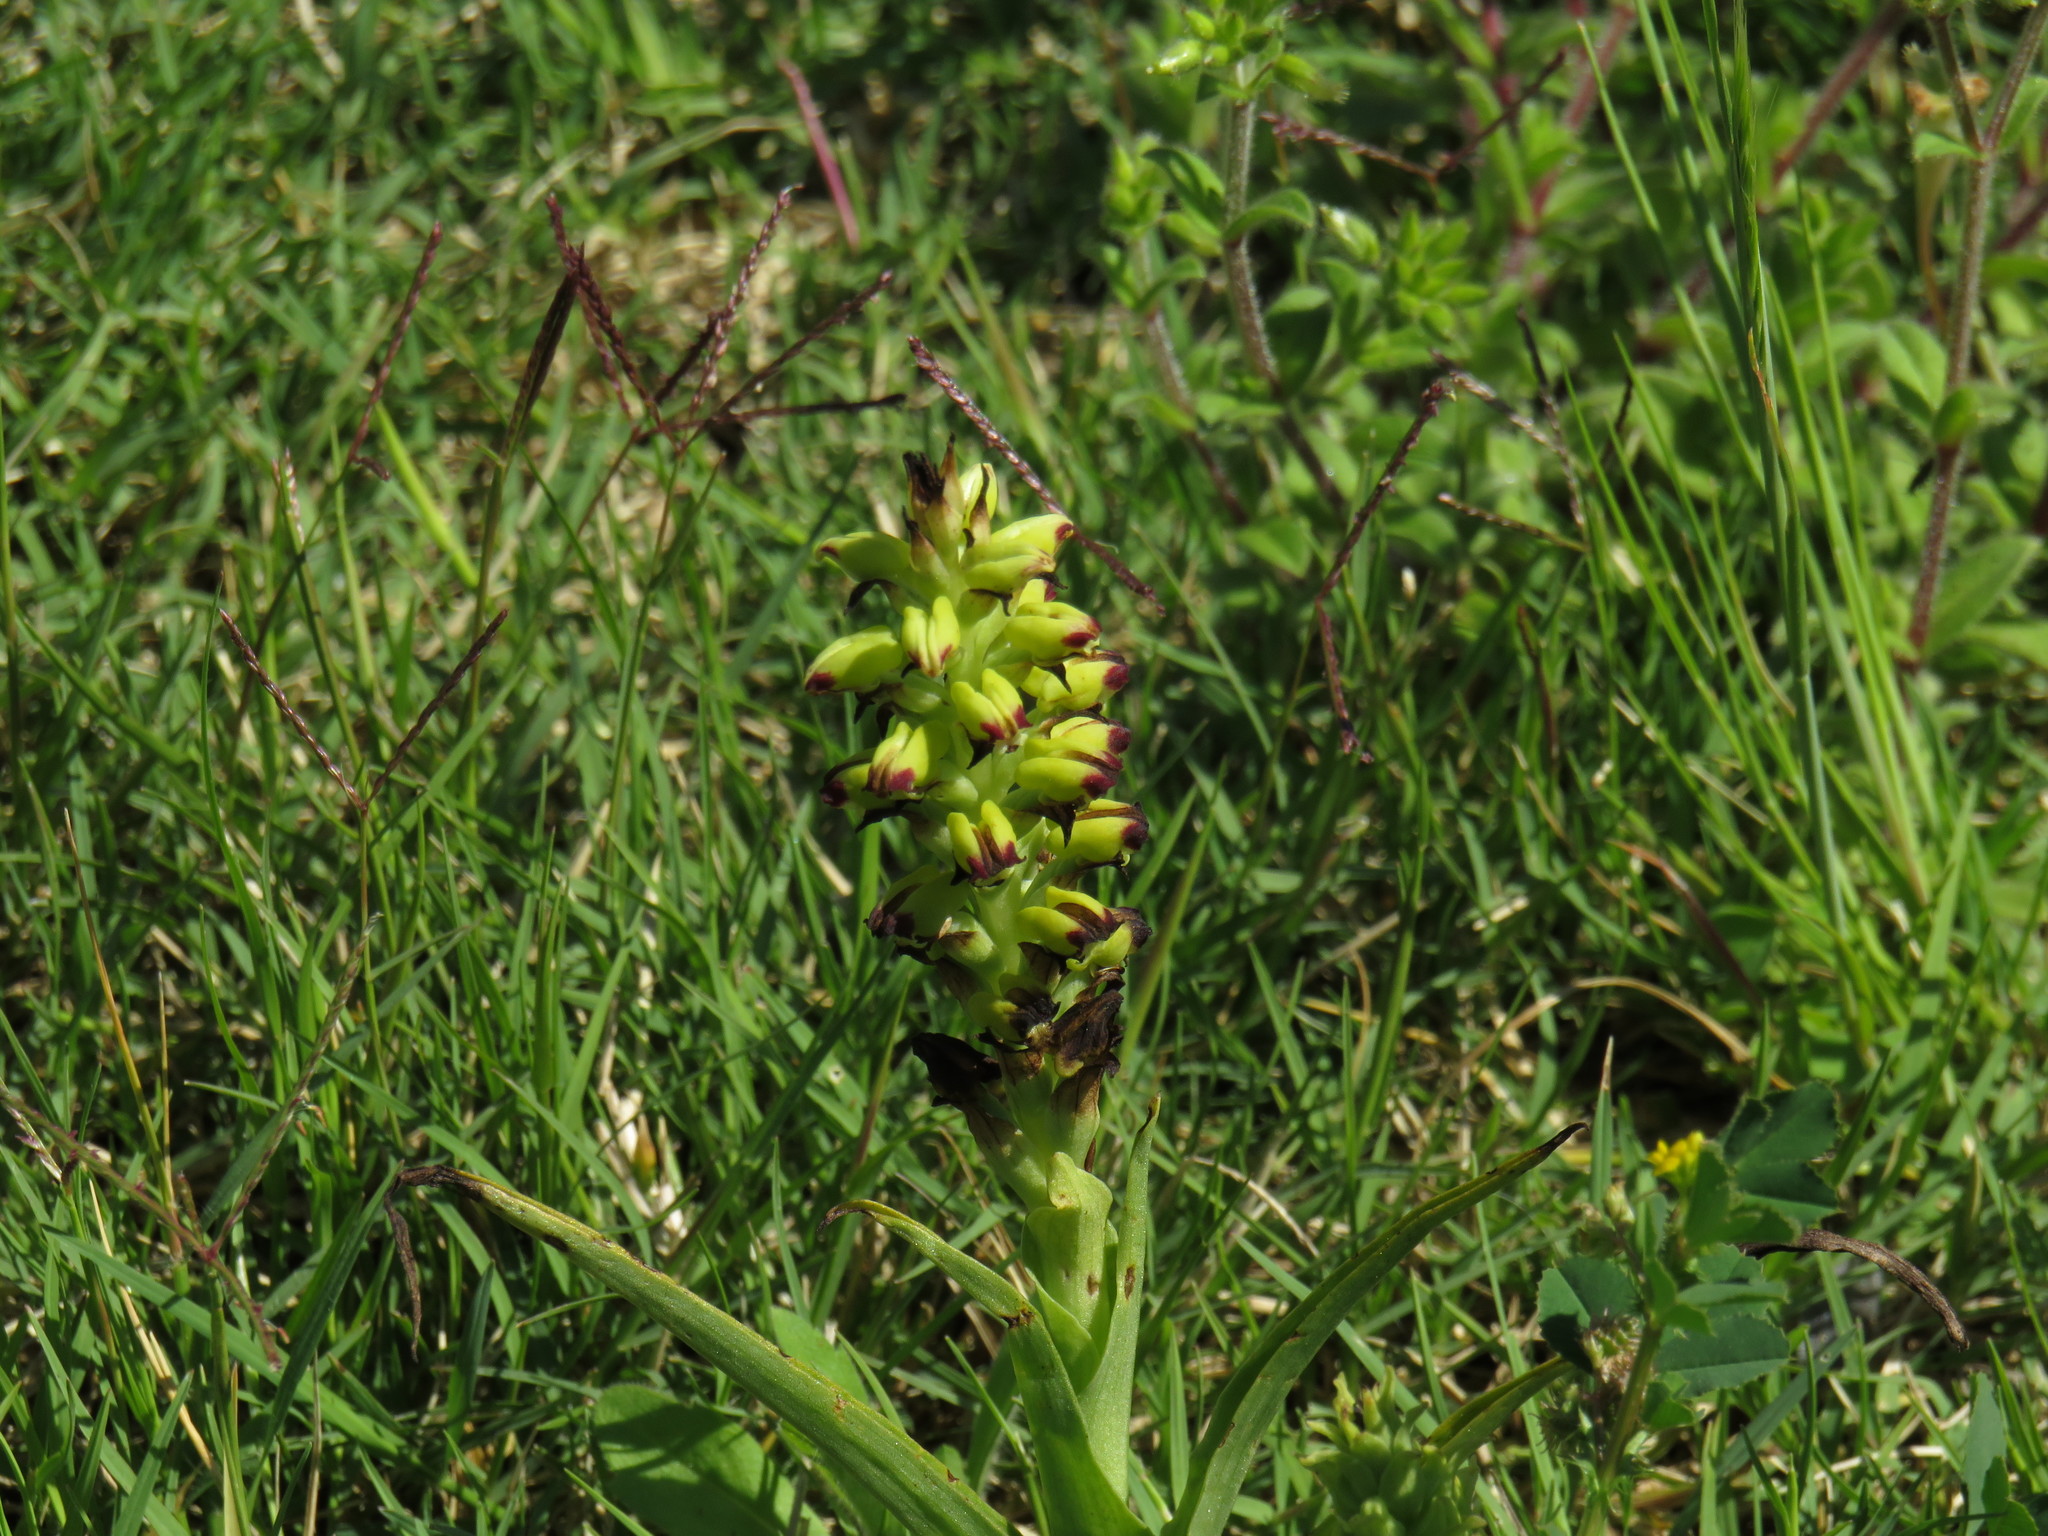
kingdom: Plantae
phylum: Tracheophyta
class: Liliopsida
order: Asparagales
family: Orchidaceae
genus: Corycium
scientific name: Corycium orobanchoides
